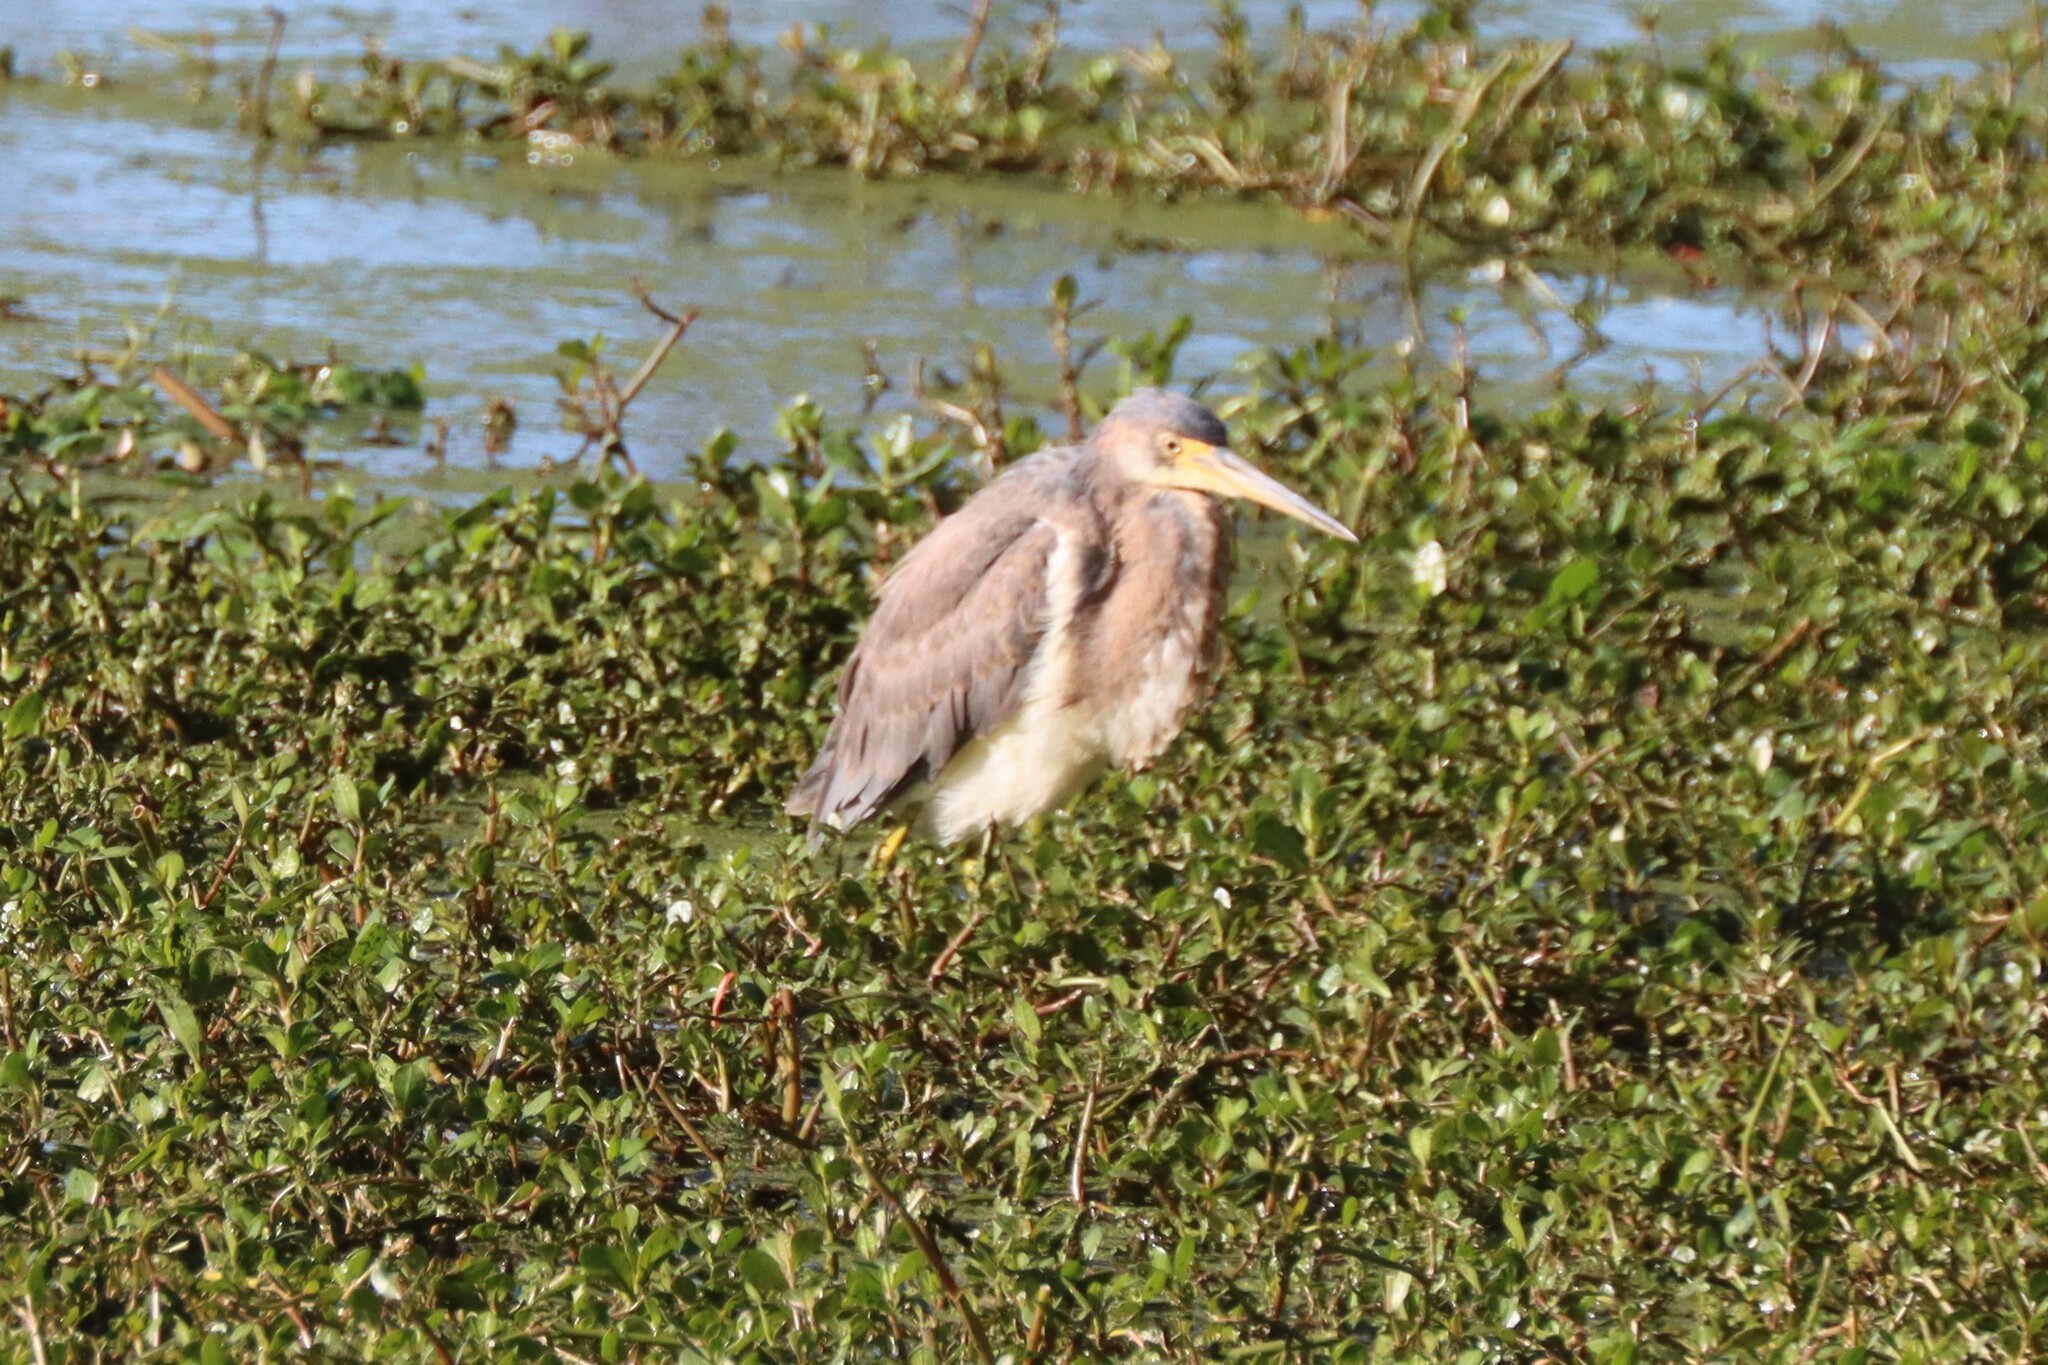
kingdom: Animalia
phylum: Chordata
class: Aves
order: Pelecaniformes
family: Ardeidae
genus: Egretta
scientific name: Egretta tricolor
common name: Tricolored heron
